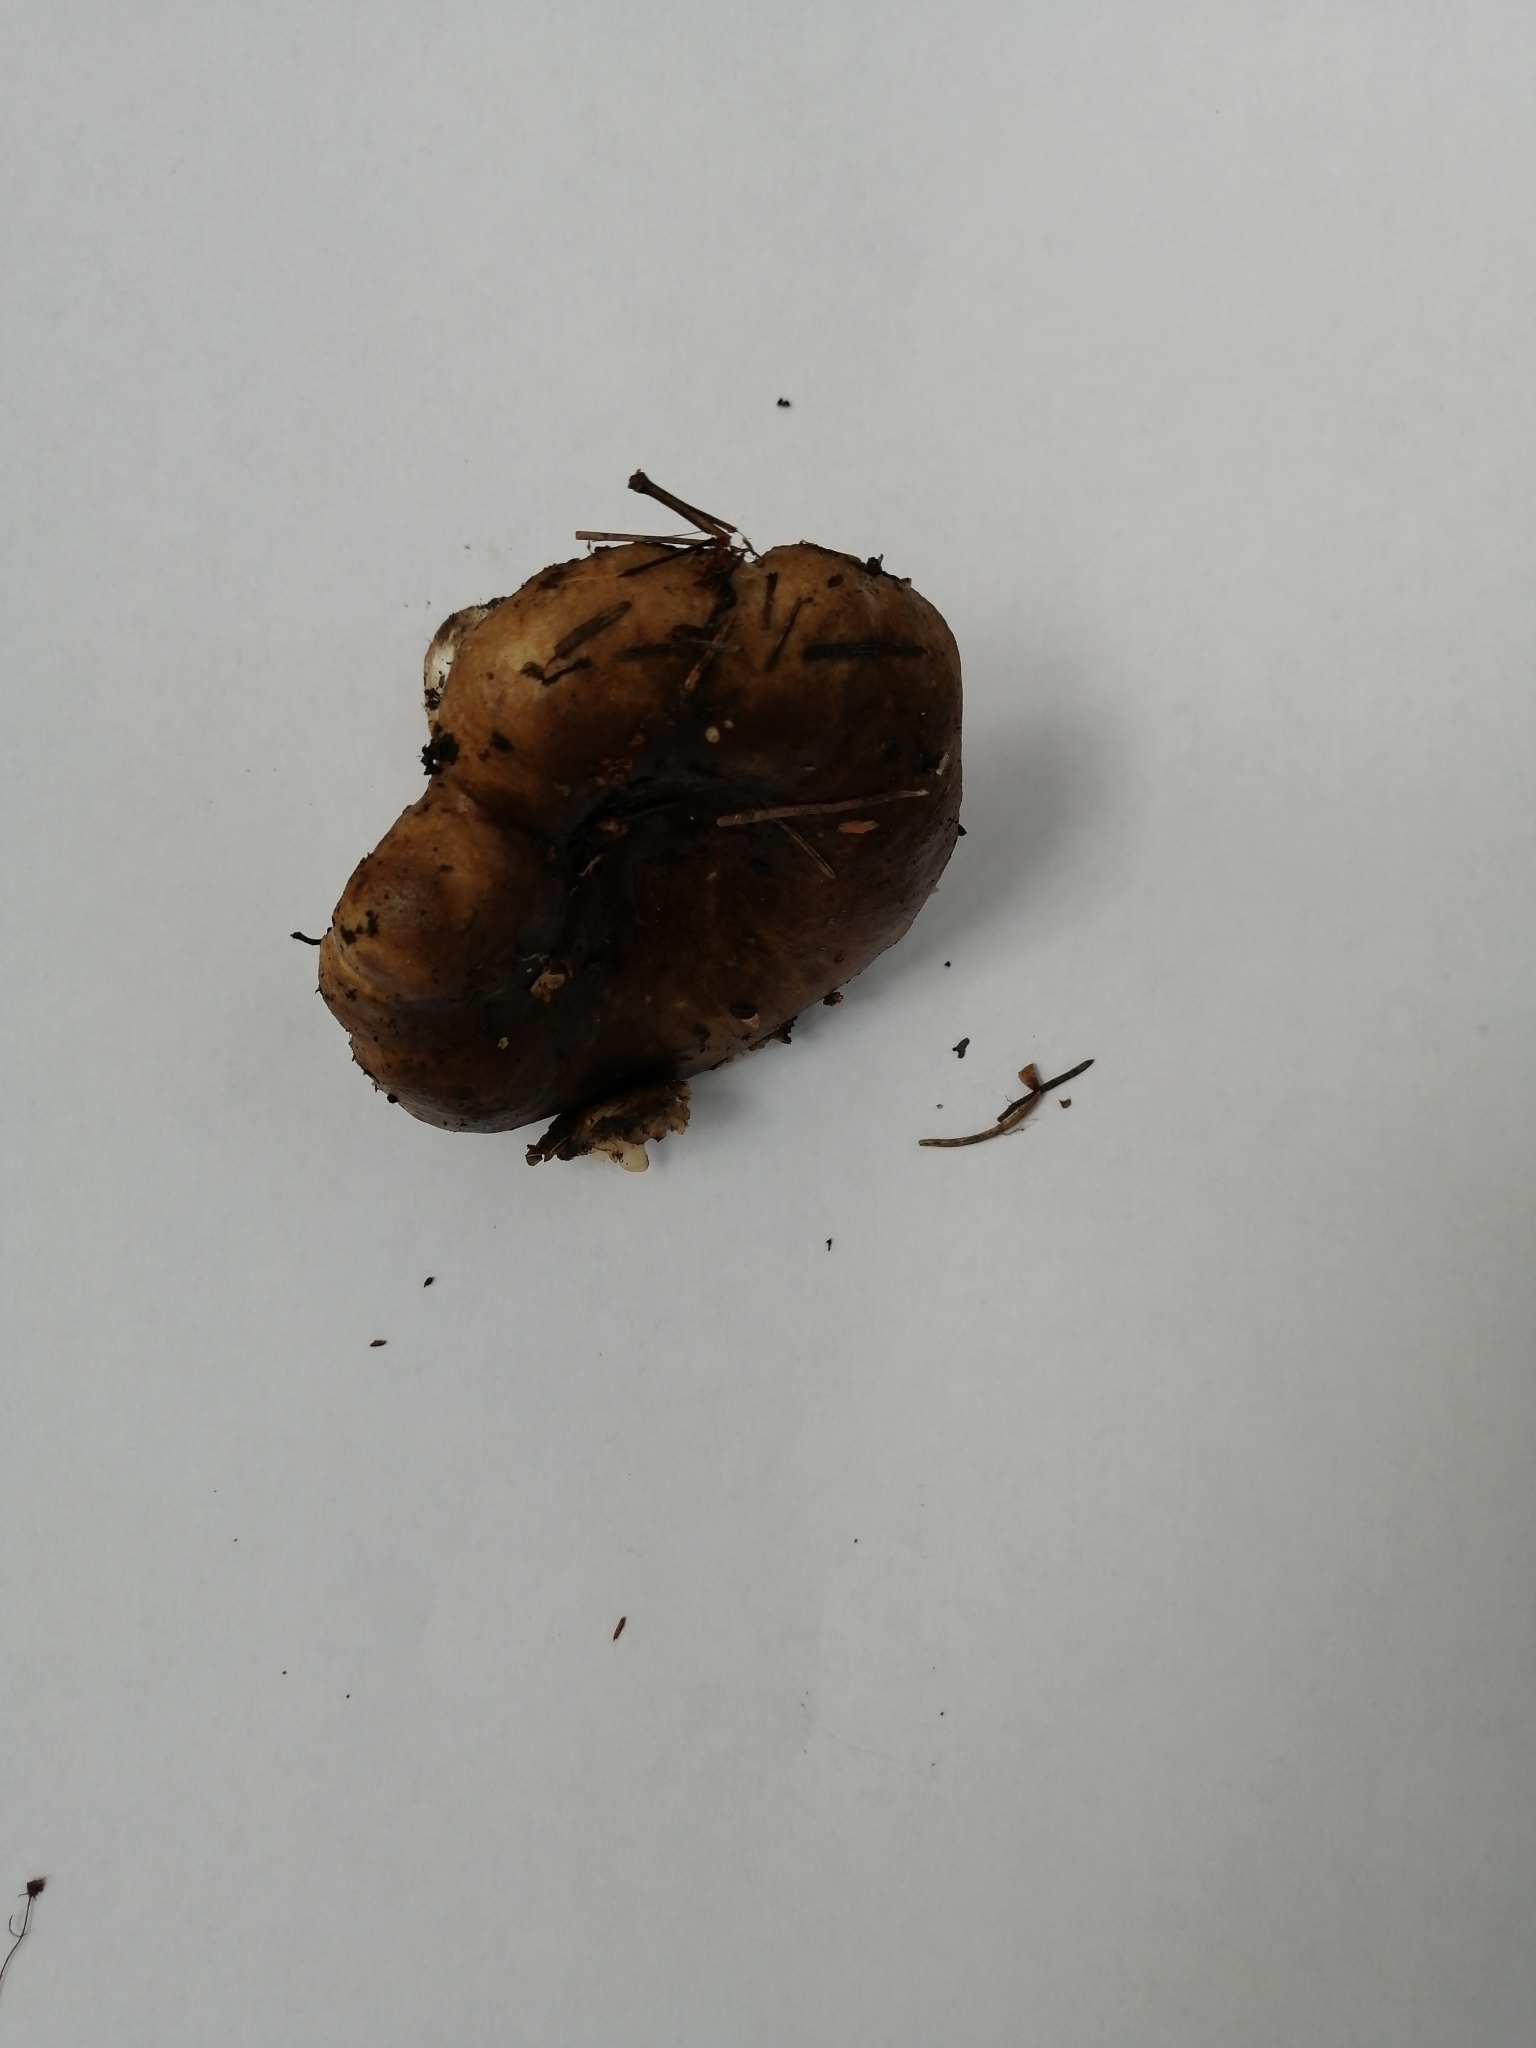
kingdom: Fungi
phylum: Basidiomycota
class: Agaricomycetes
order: Russulales
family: Russulaceae
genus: Russula
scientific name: Russula albonigra
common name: Menthol brittlegill
